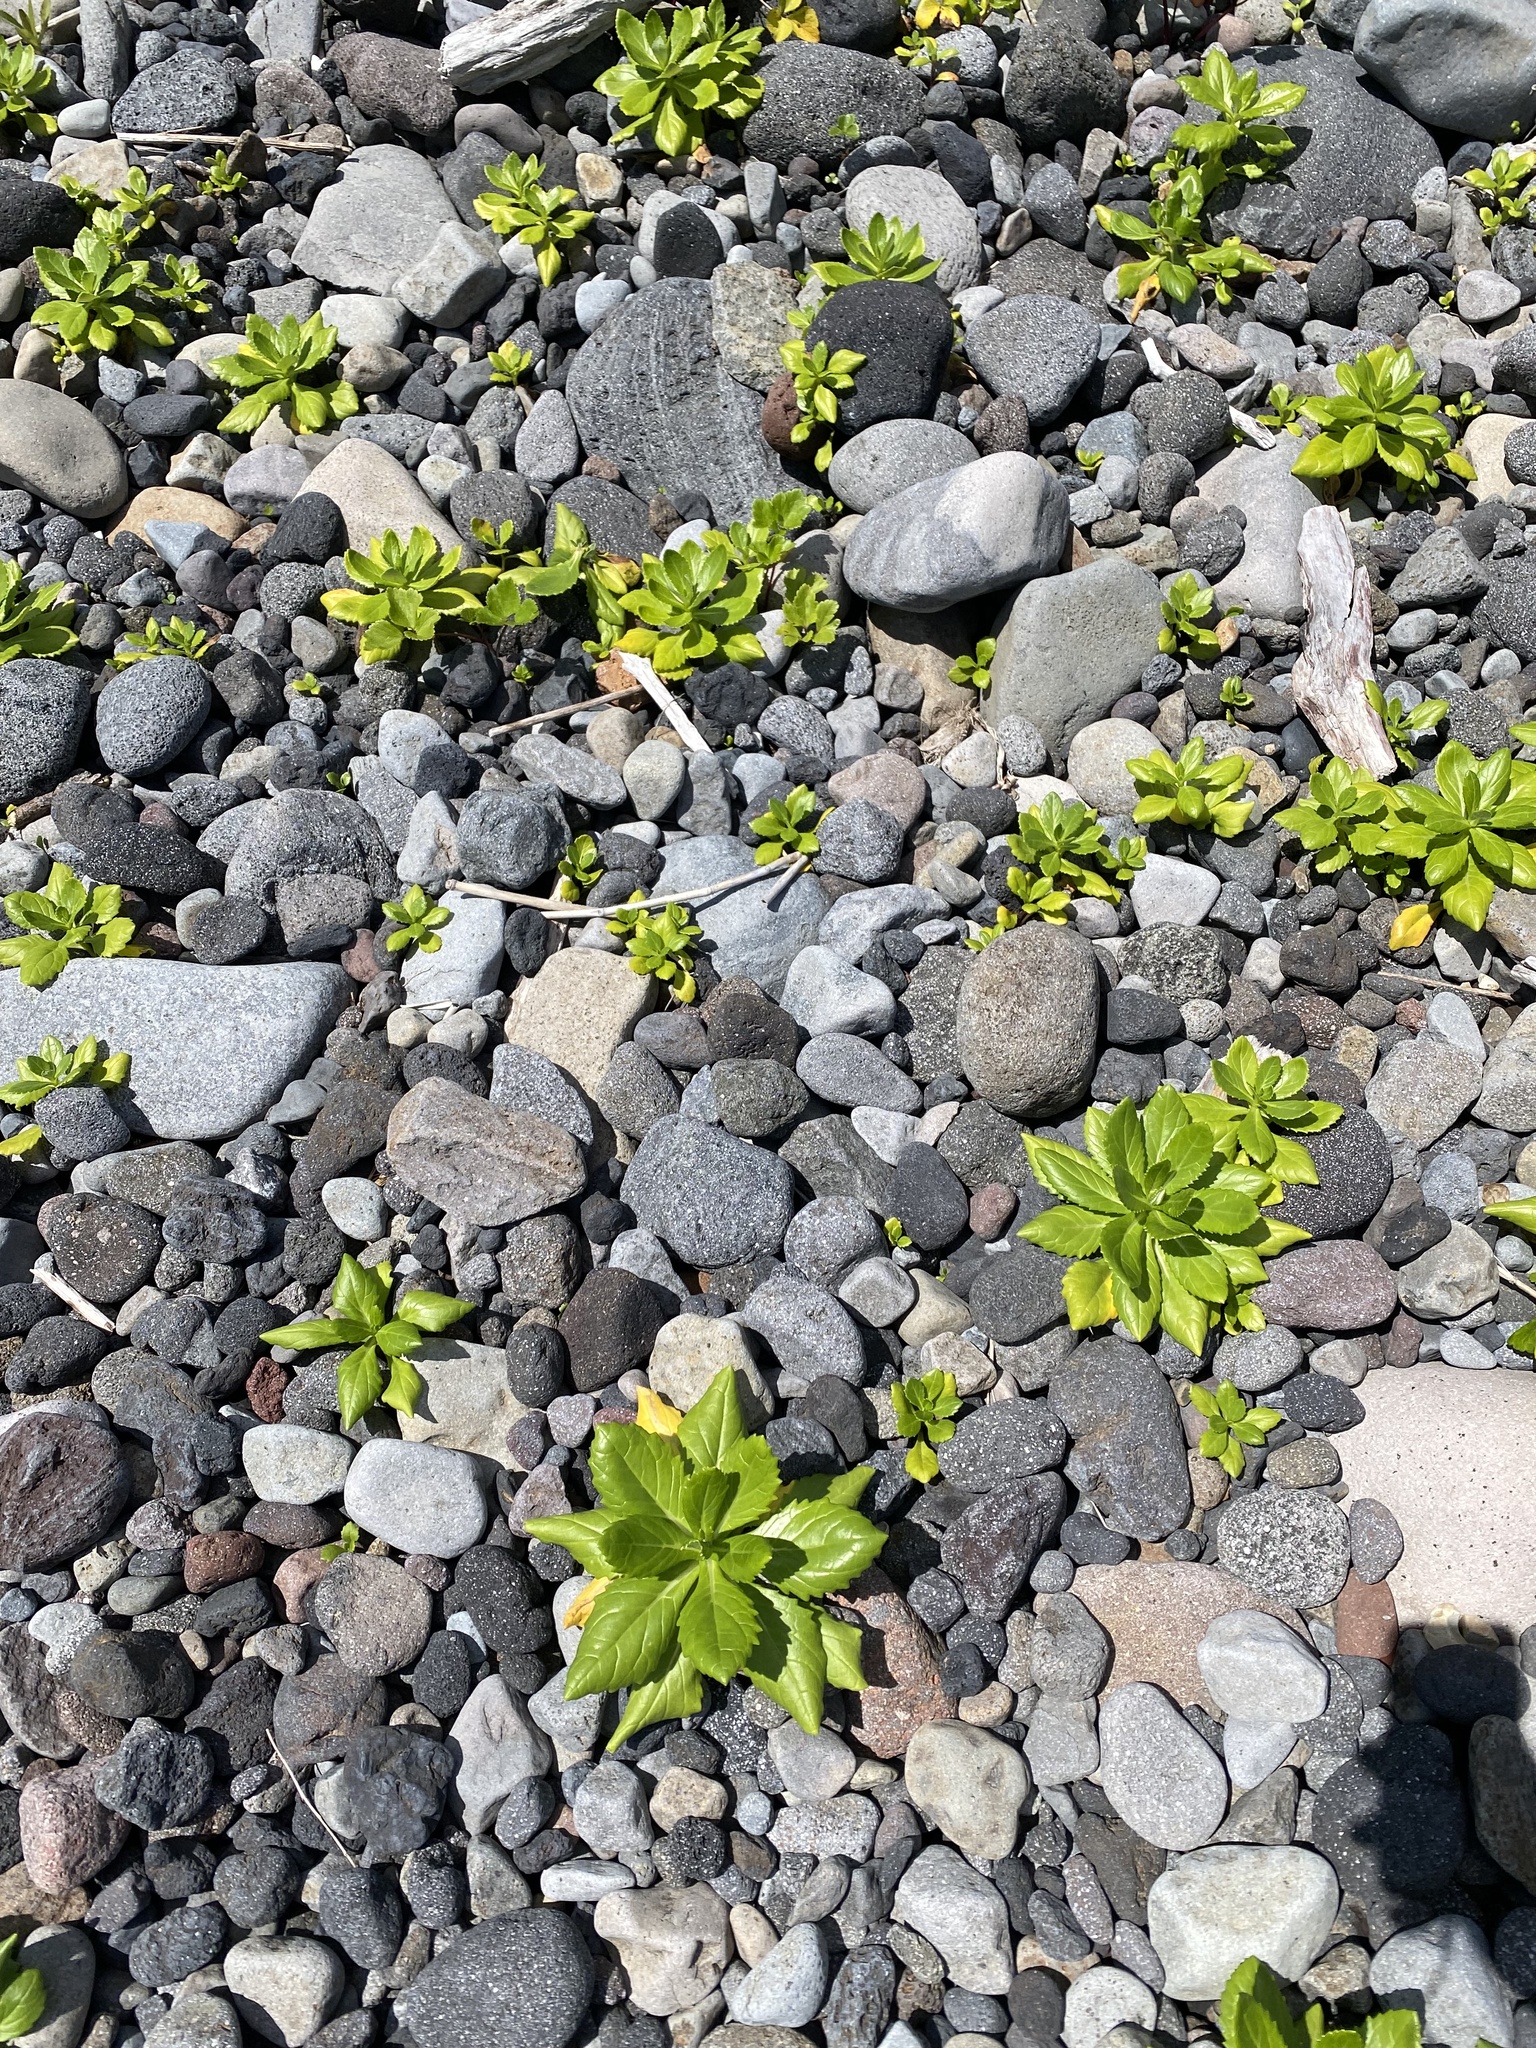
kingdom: Plantae
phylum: Tracheophyta
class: Magnoliopsida
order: Asterales
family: Asteraceae
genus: Jacobaea
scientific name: Jacobaea pseudoarnica
